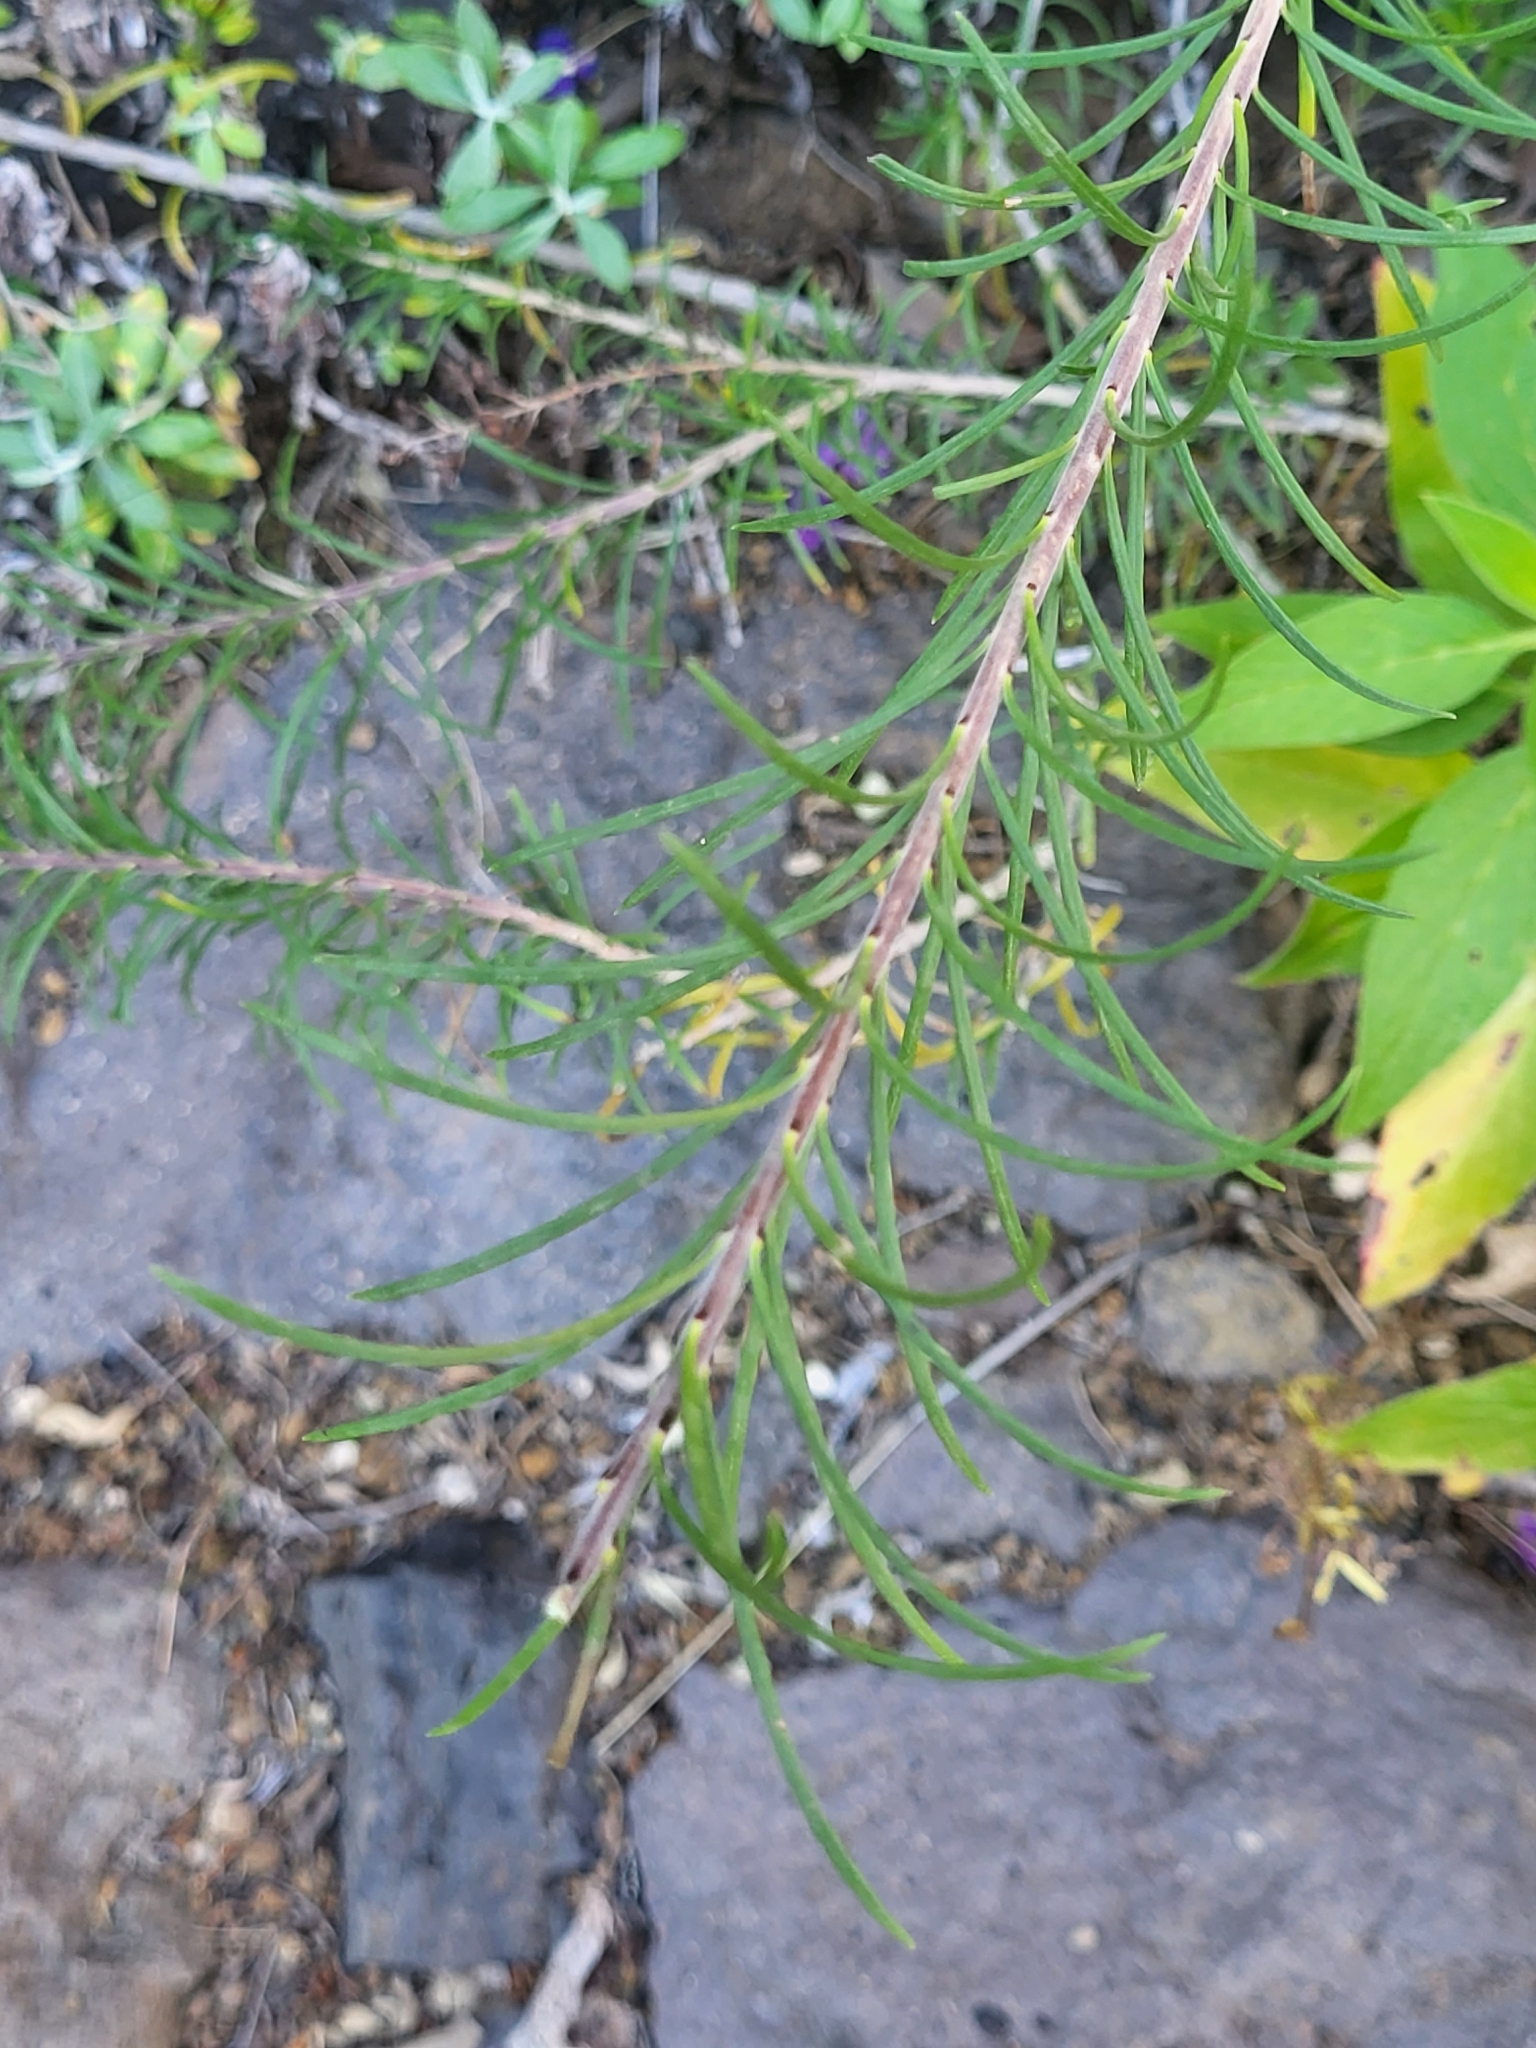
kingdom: Plantae
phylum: Tracheophyta
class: Magnoliopsida
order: Lamiales
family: Plantaginaceae
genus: Campylanthus
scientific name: Campylanthus glaber
